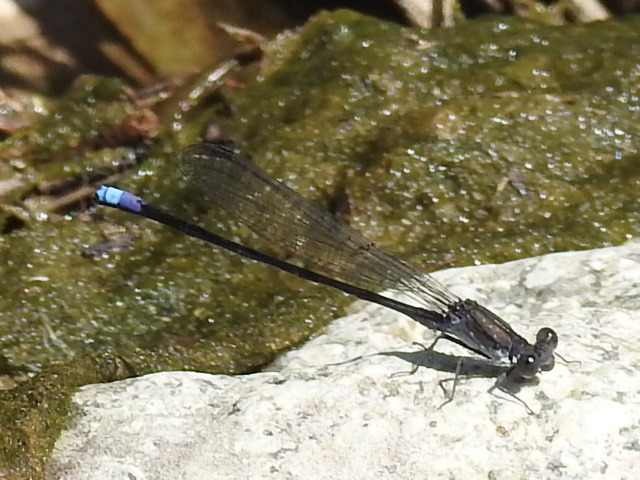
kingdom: Animalia
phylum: Arthropoda
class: Insecta
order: Odonata
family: Coenagrionidae
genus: Argia
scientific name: Argia fumipennis
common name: Variable dancer
